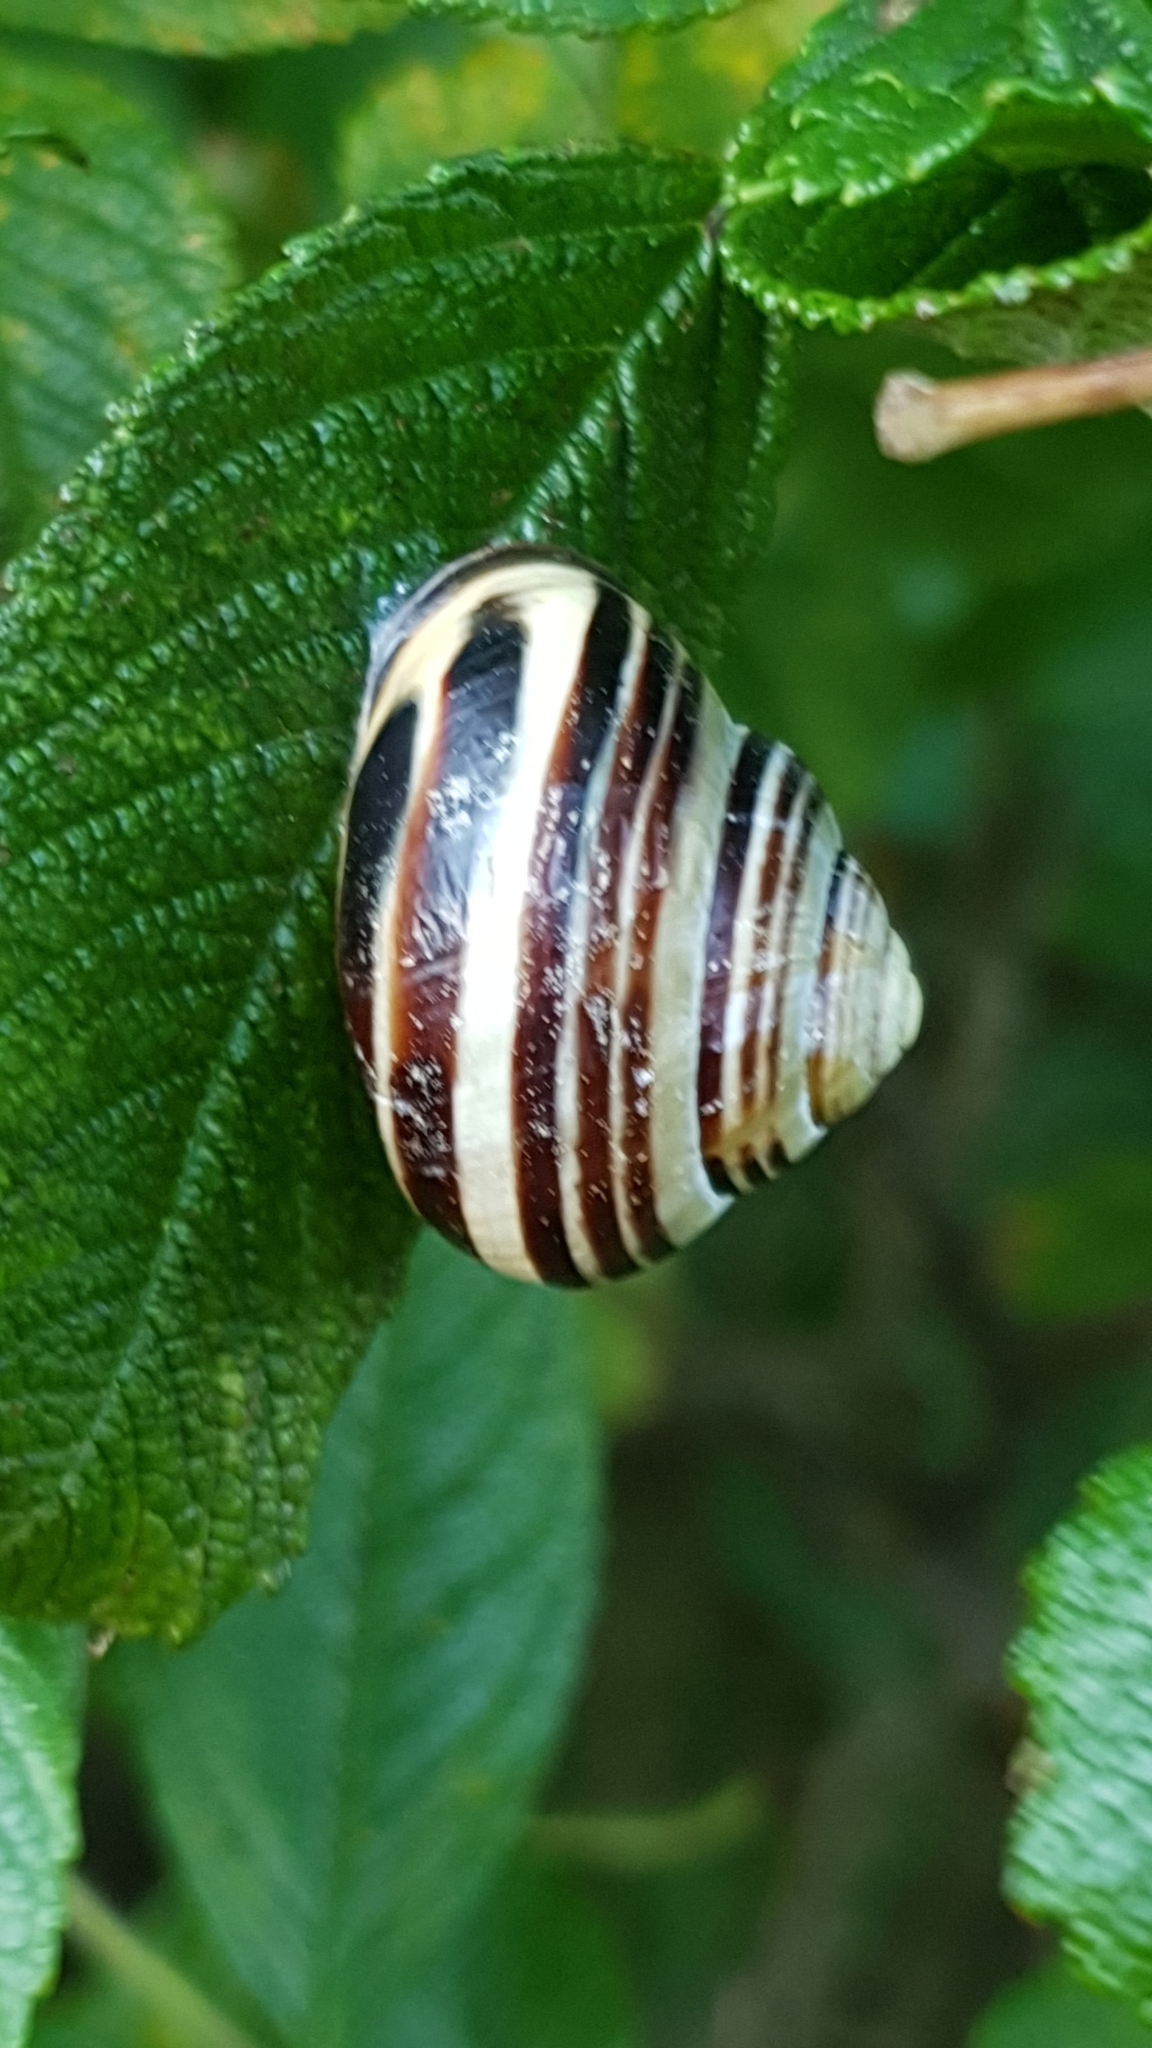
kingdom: Animalia
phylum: Mollusca
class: Gastropoda
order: Stylommatophora
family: Helicidae
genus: Cepaea
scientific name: Cepaea nemoralis
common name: Grovesnail
